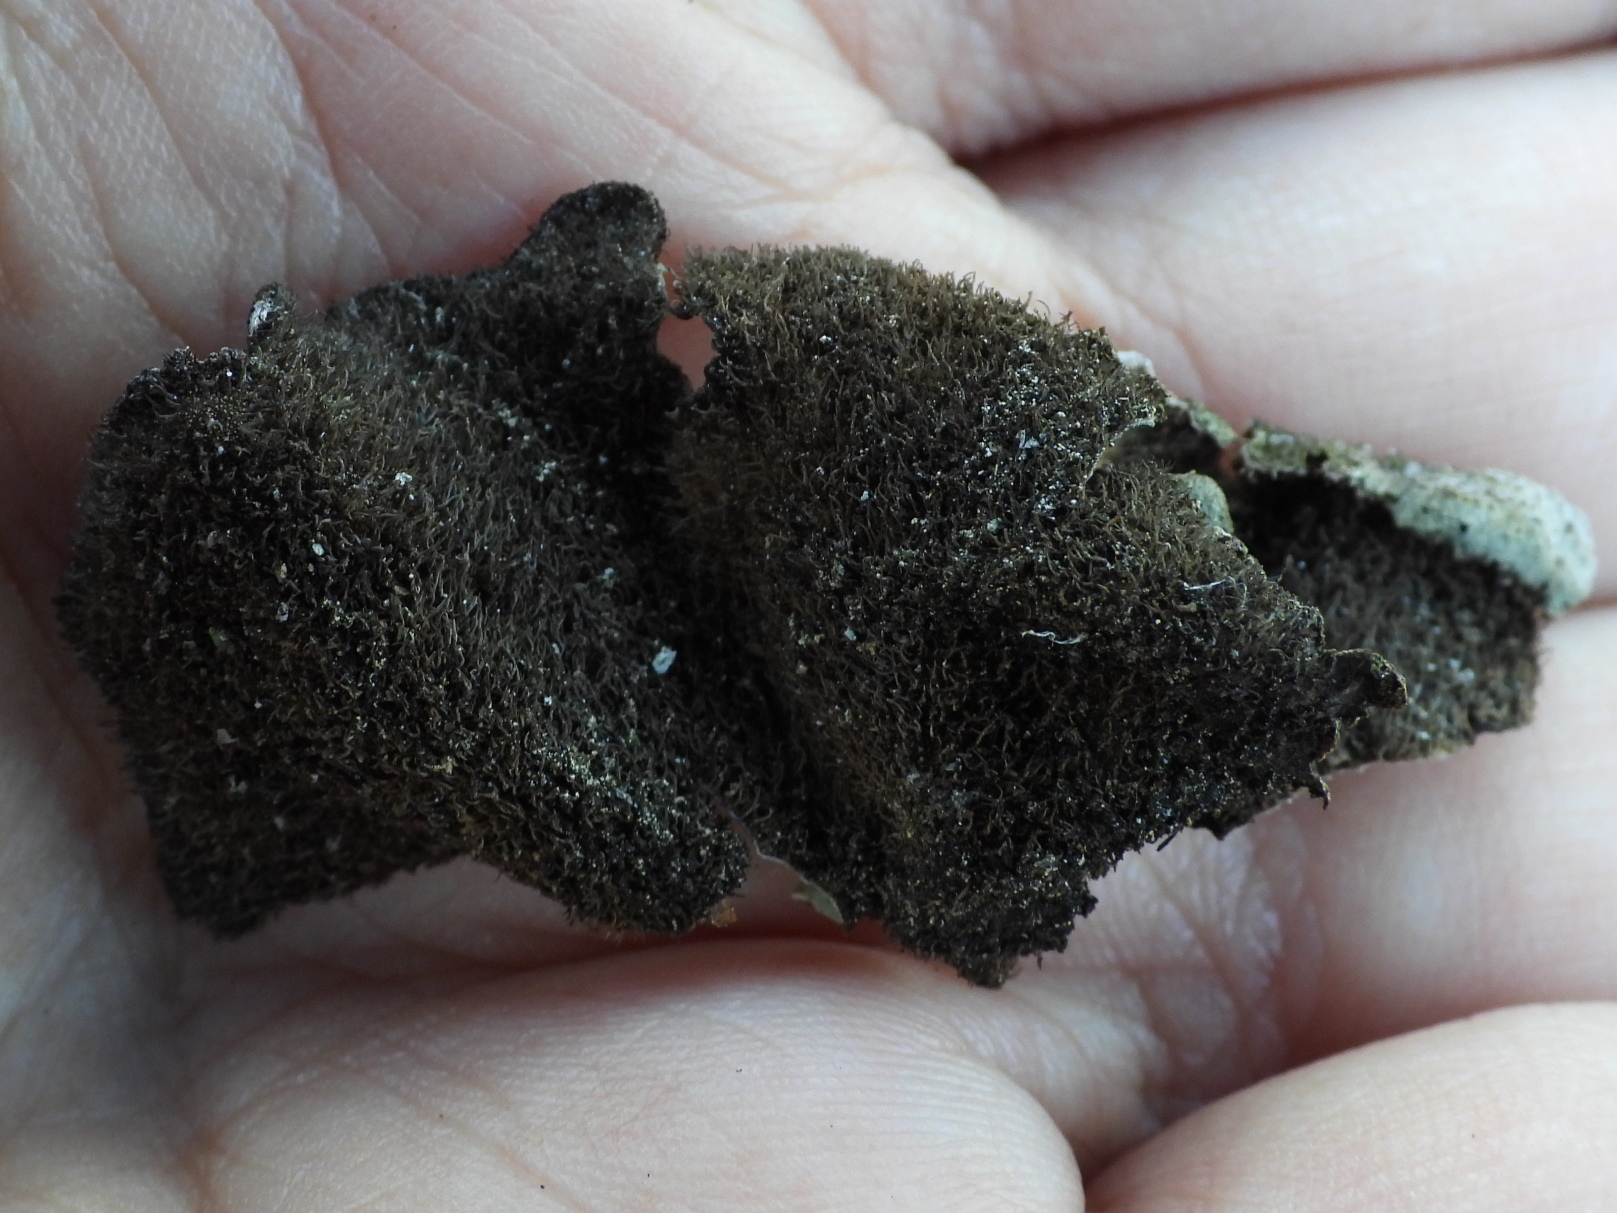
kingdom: Fungi
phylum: Ascomycota
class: Lecanoromycetes
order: Umbilicariales
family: Umbilicariaceae
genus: Umbilicaria
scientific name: Umbilicaria hirsuta
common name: Granulating rocktripe lichen
